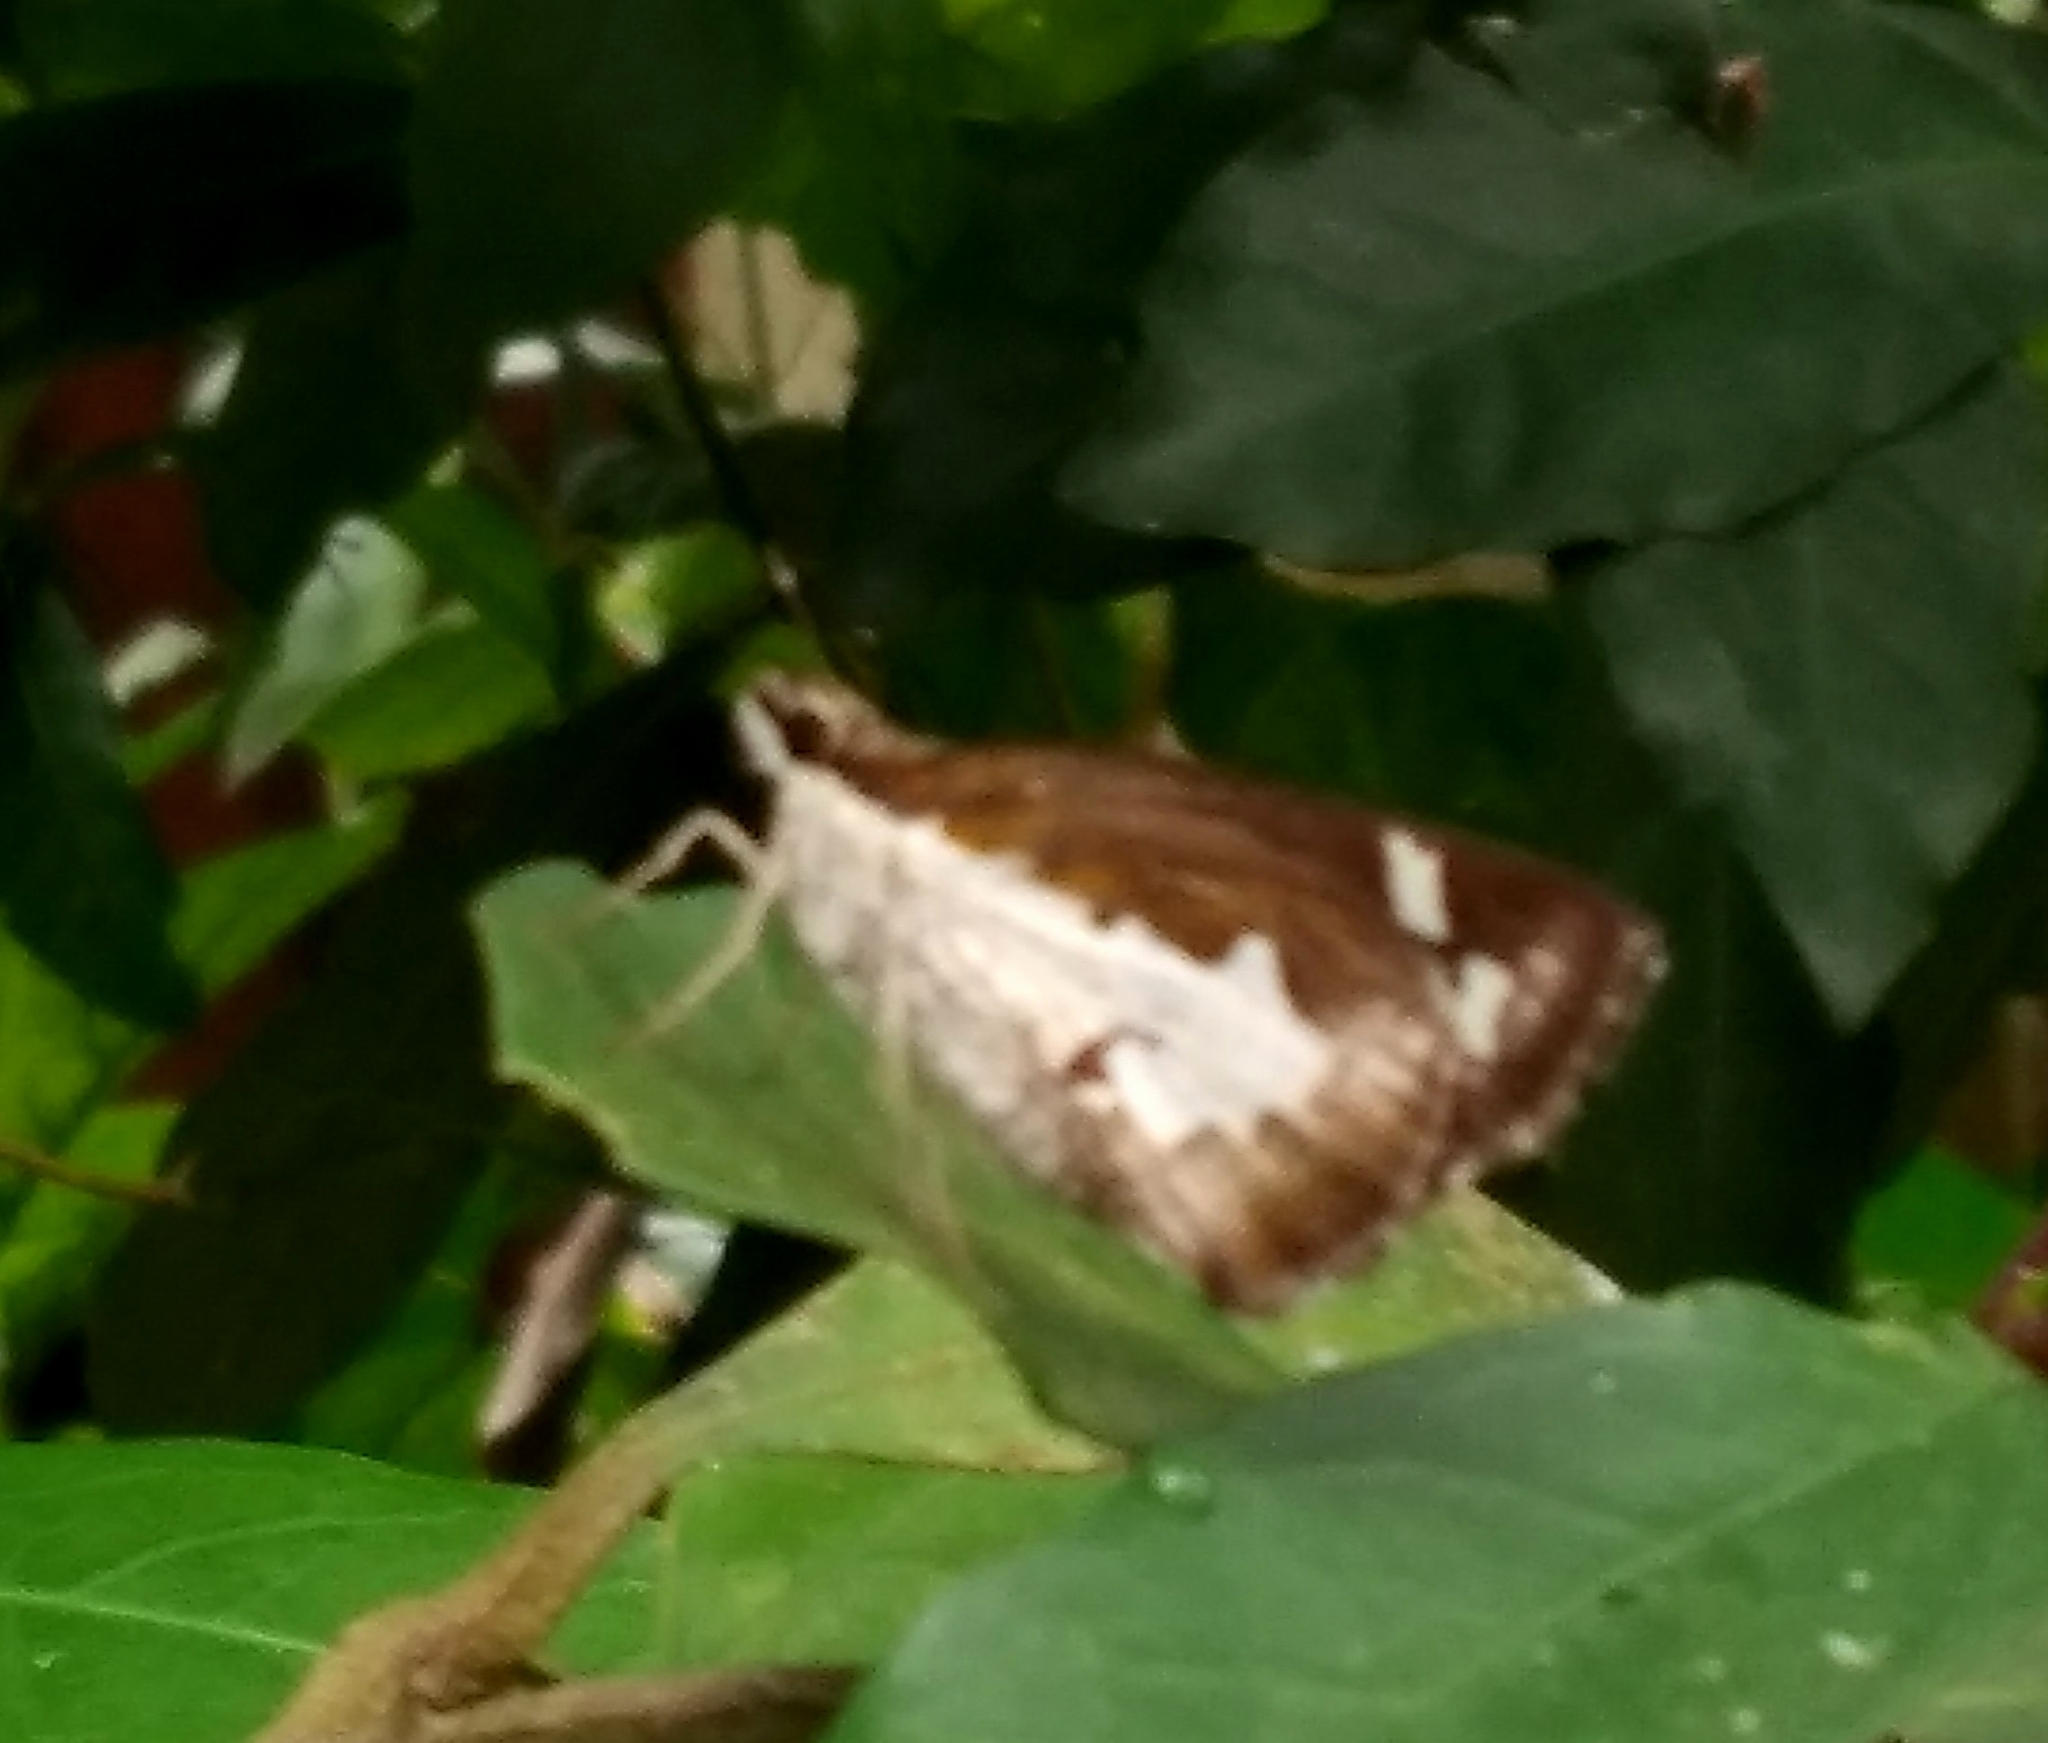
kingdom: Animalia
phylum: Arthropoda
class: Insecta
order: Lepidoptera
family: Hesperiidae
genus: Udaspes
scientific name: Udaspes folus
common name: Grass demon
